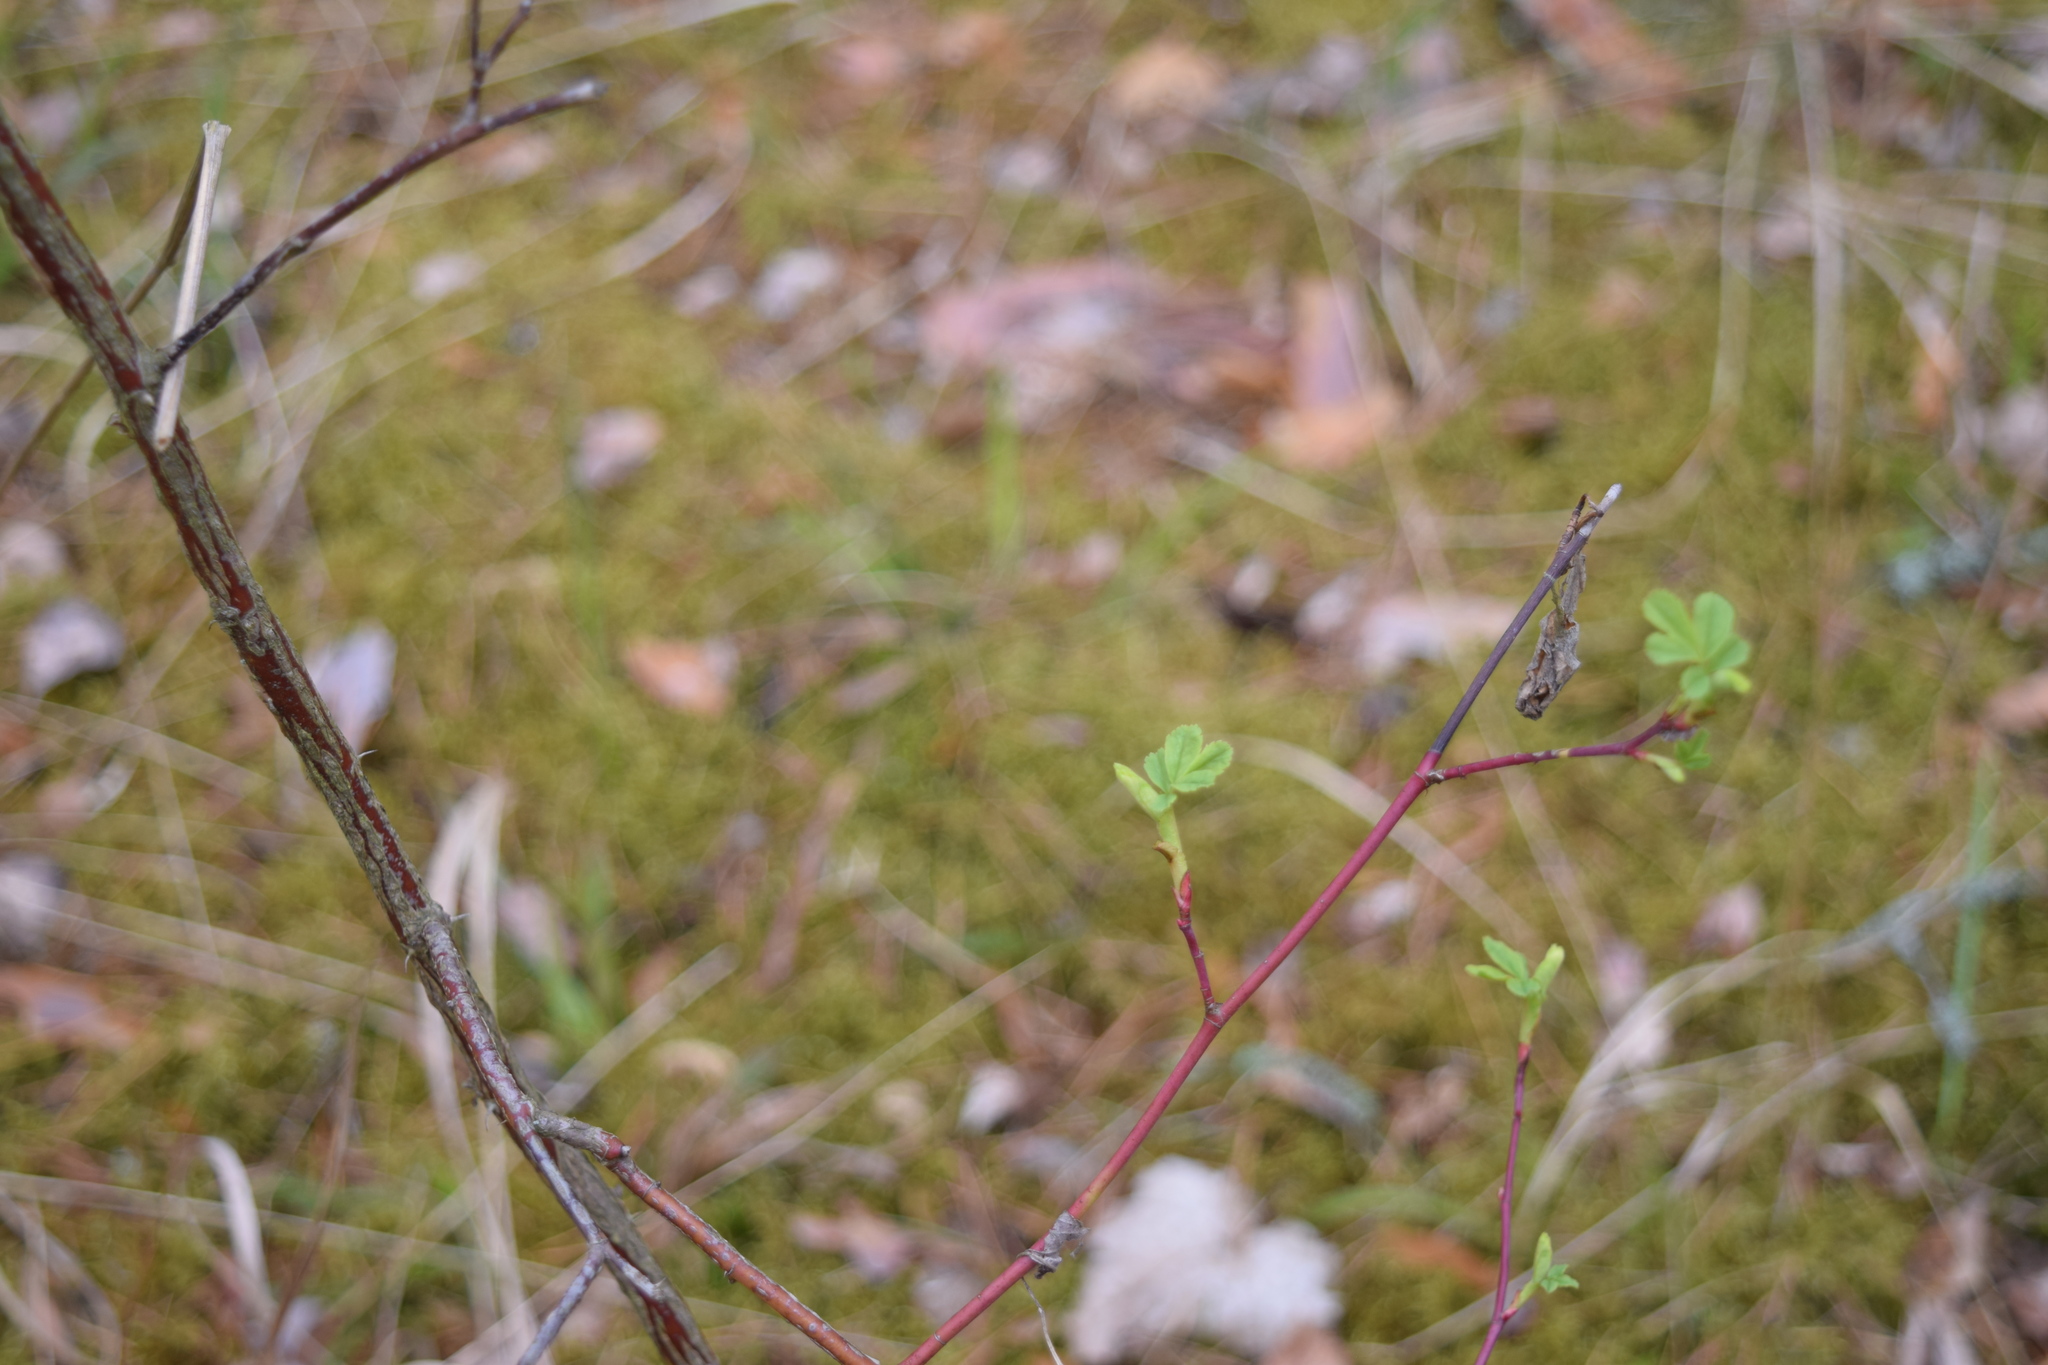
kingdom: Plantae
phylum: Tracheophyta
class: Magnoliopsida
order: Rosales
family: Rosaceae
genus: Rosa
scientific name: Rosa
